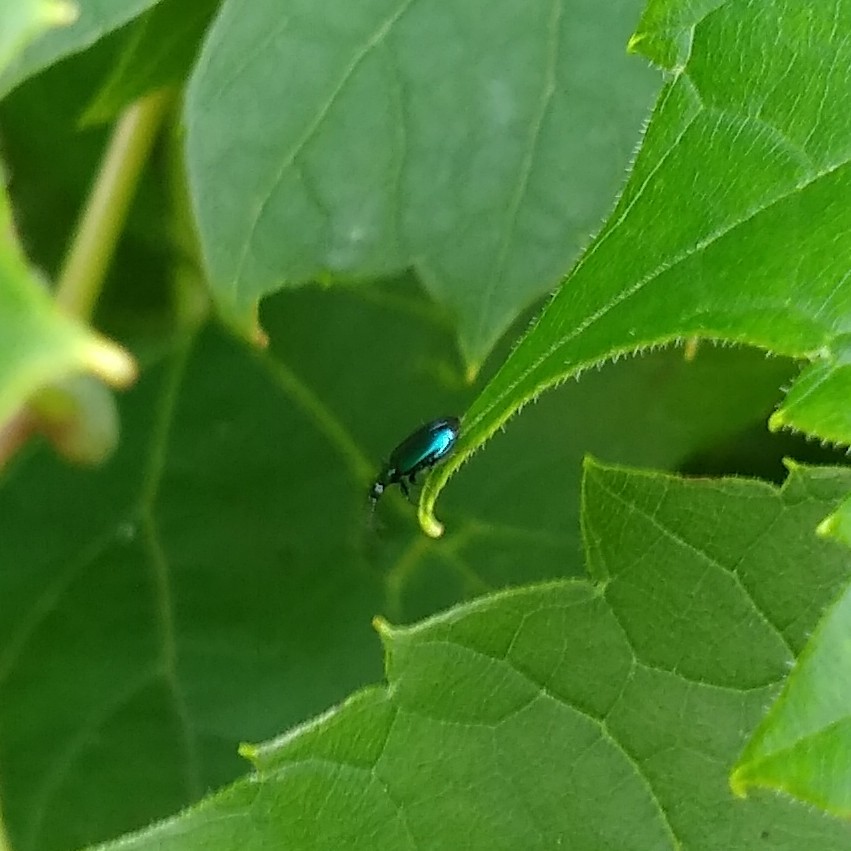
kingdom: Animalia
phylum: Arthropoda
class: Insecta
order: Coleoptera
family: Carabidae
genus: Lebia
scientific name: Lebia viridis
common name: Flower lebia beetle
